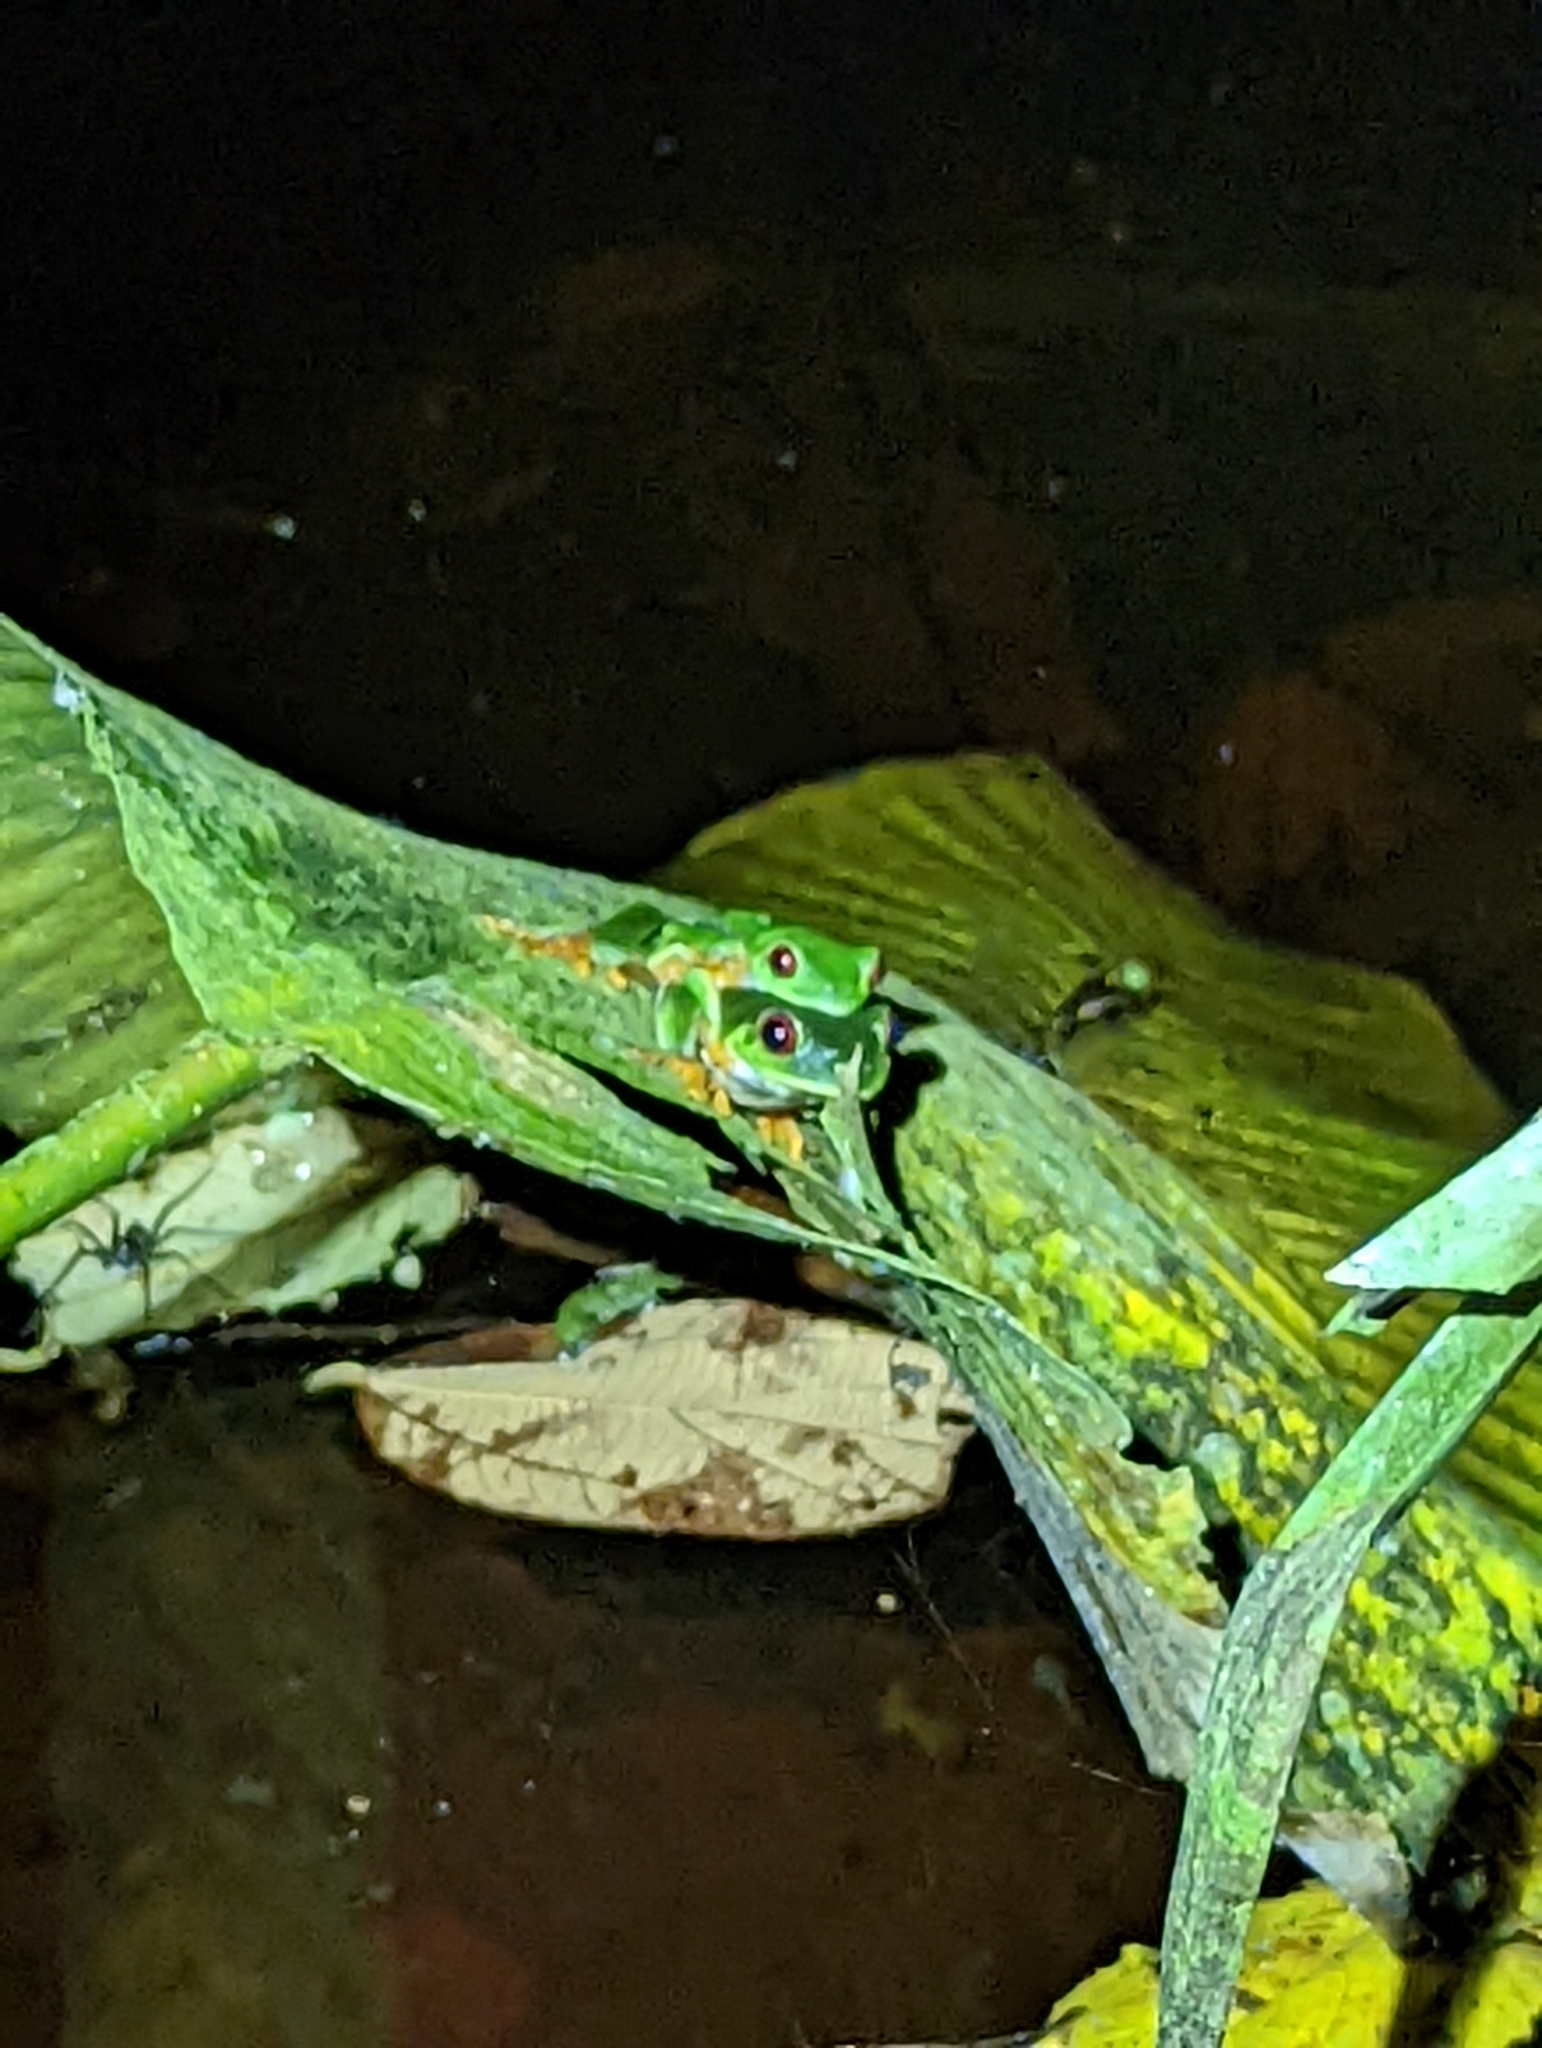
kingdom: Animalia
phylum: Chordata
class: Amphibia
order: Anura
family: Phyllomedusidae
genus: Agalychnis
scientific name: Agalychnis callidryas
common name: Red-eyed treefrog
